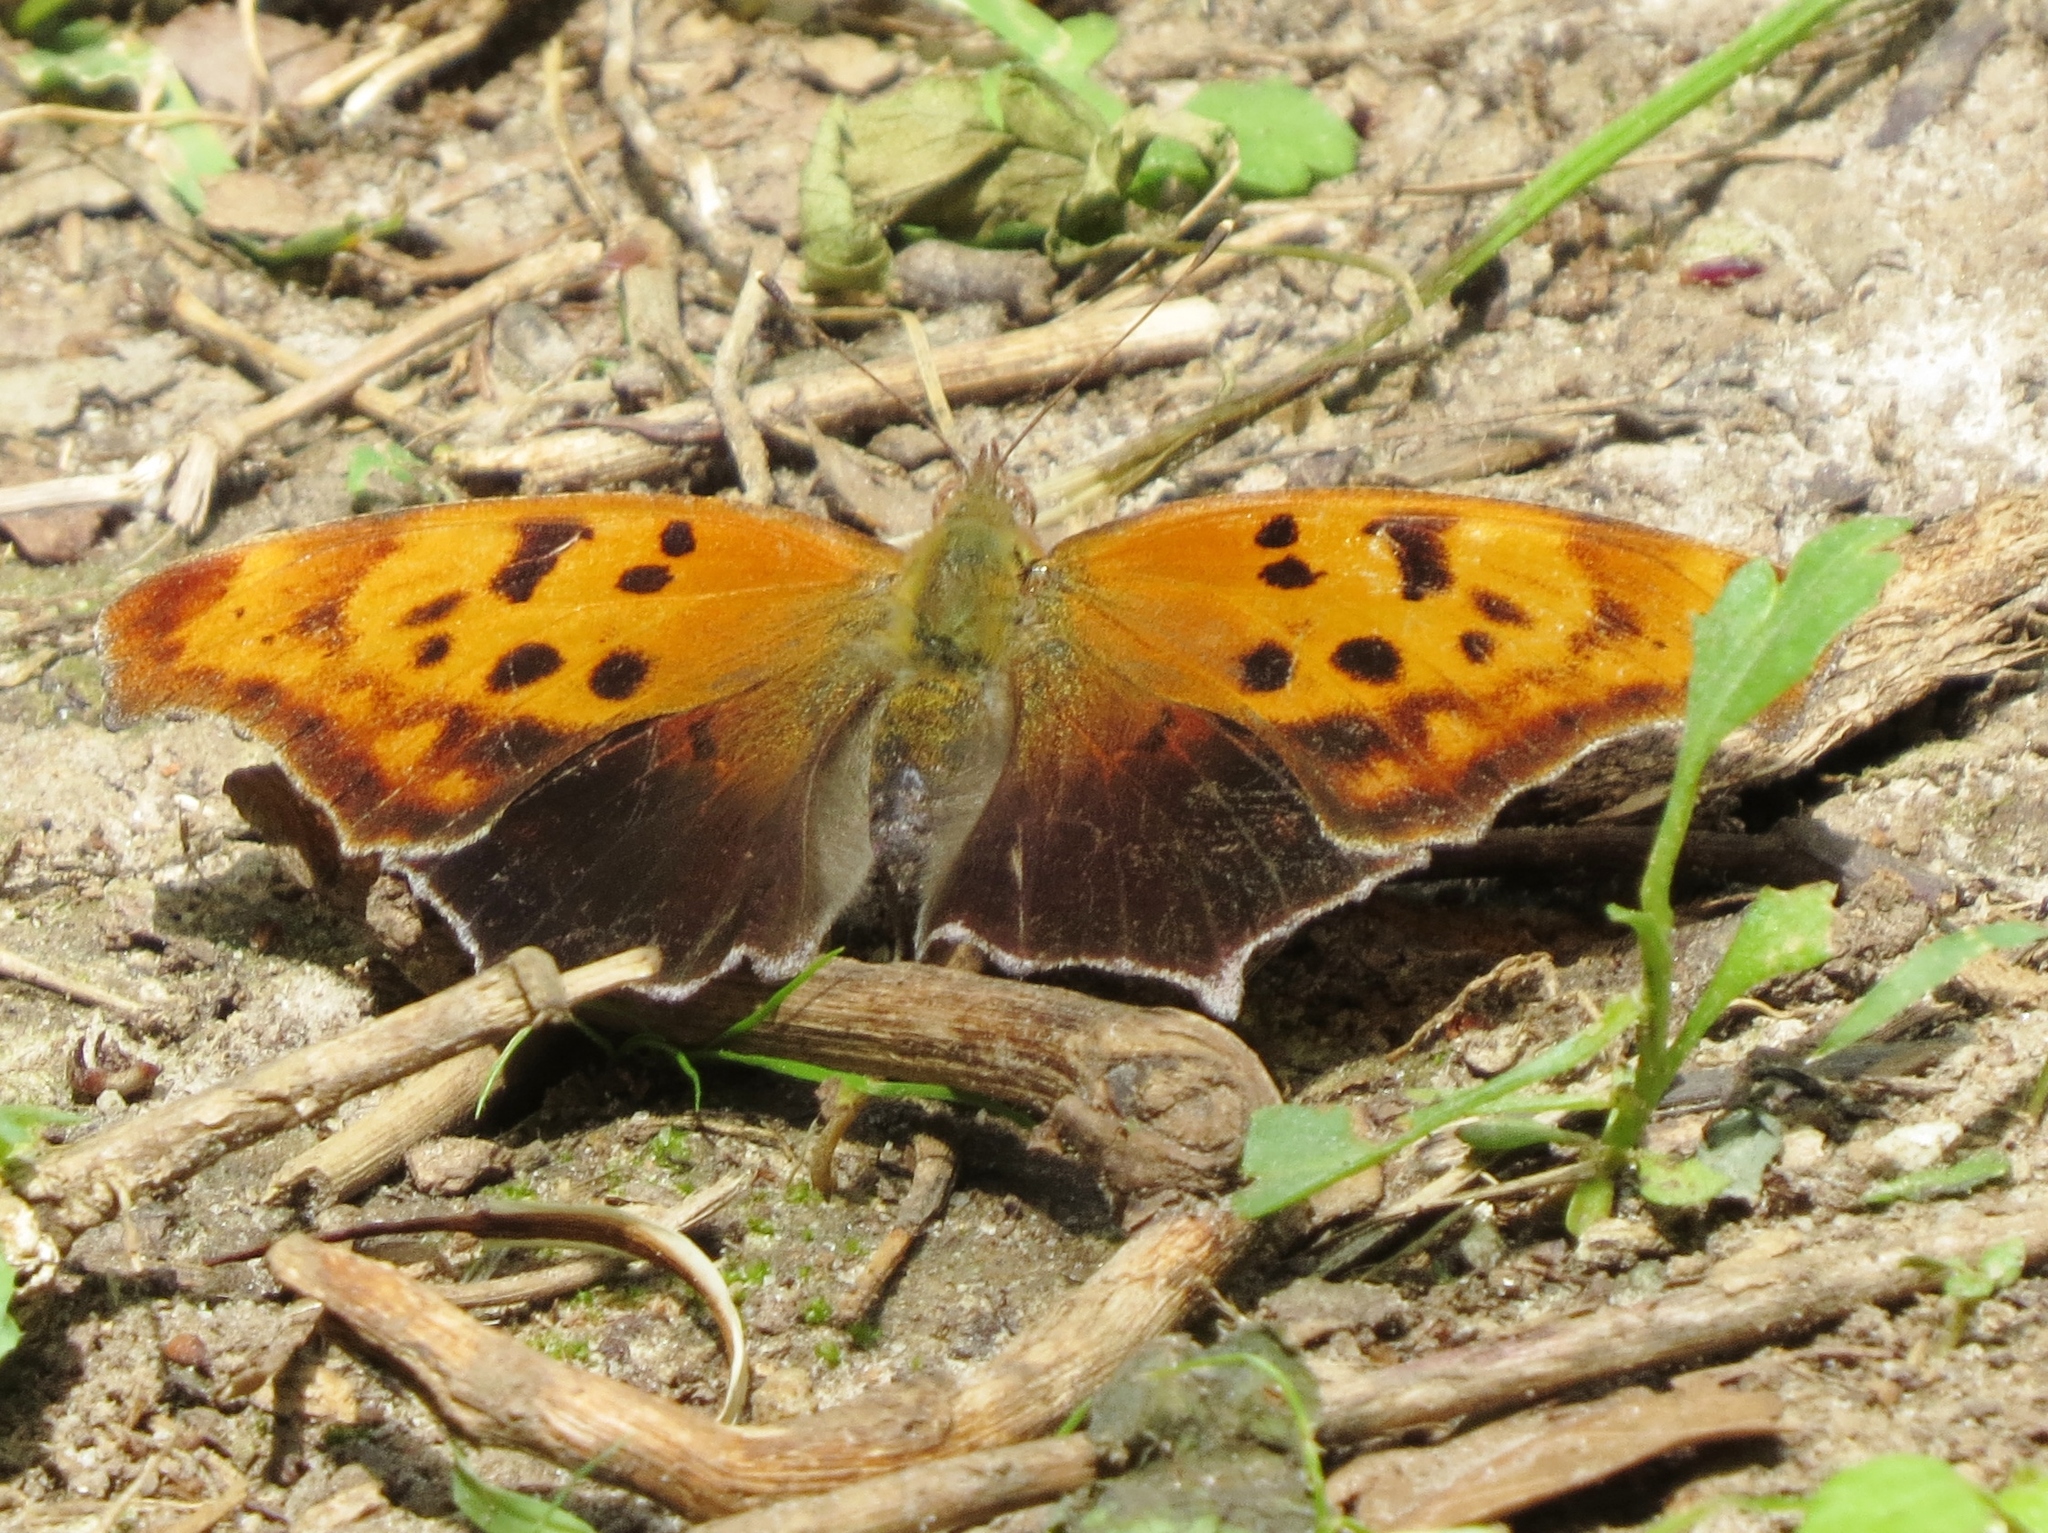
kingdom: Animalia
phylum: Arthropoda
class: Insecta
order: Lepidoptera
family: Nymphalidae
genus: Polygonia
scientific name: Polygonia interrogationis
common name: Question mark
